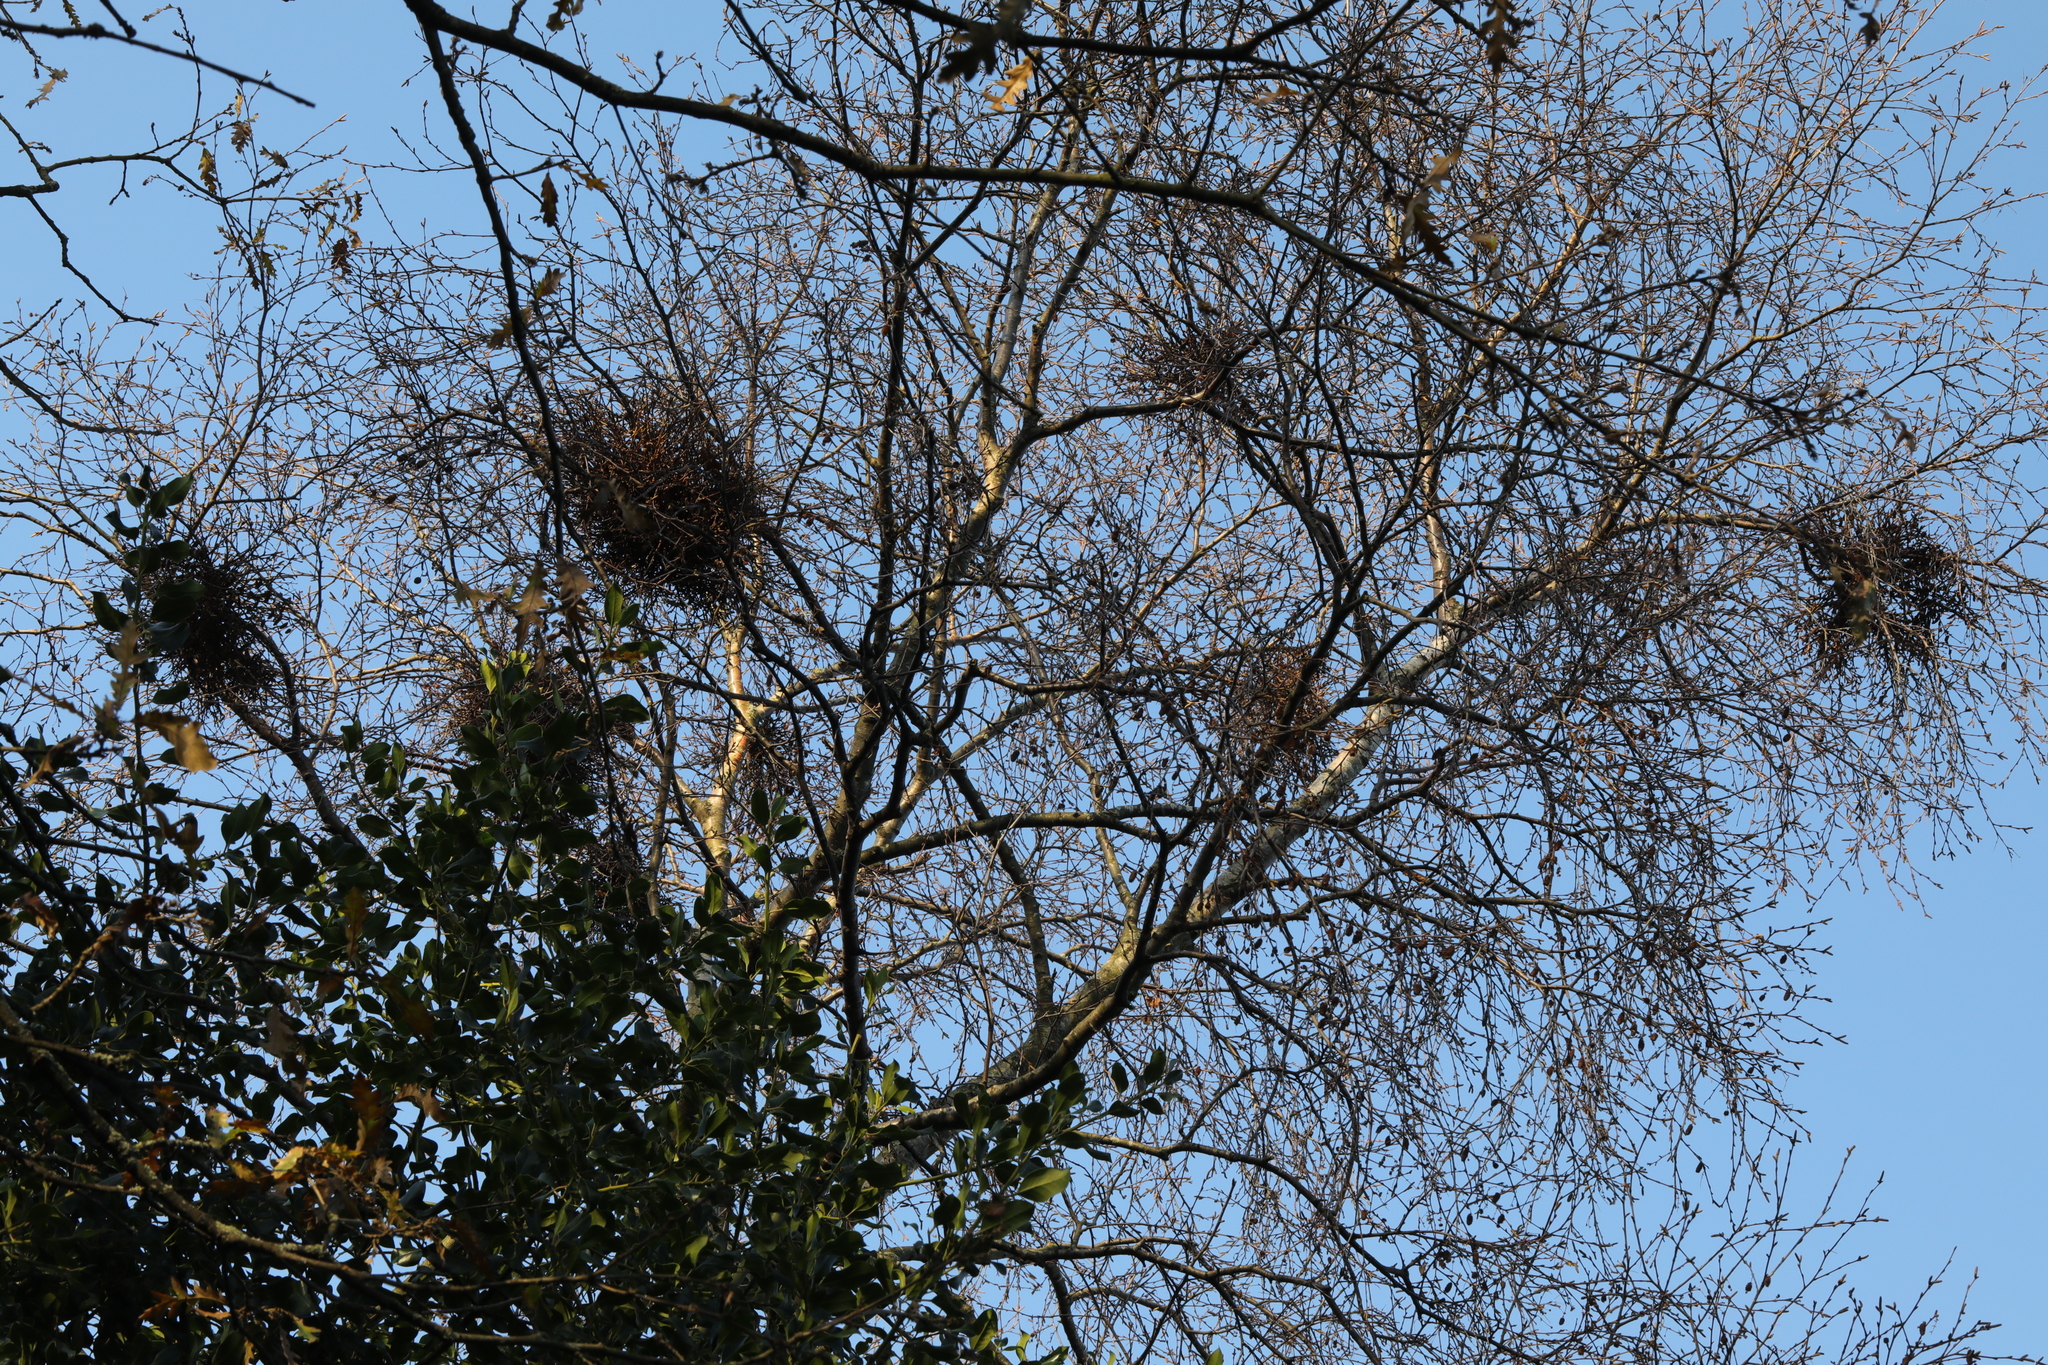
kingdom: Fungi
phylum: Ascomycota
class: Taphrinomycetes
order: Taphrinales
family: Taphrinaceae
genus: Taphrina
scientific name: Taphrina betulina
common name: Birch besom
